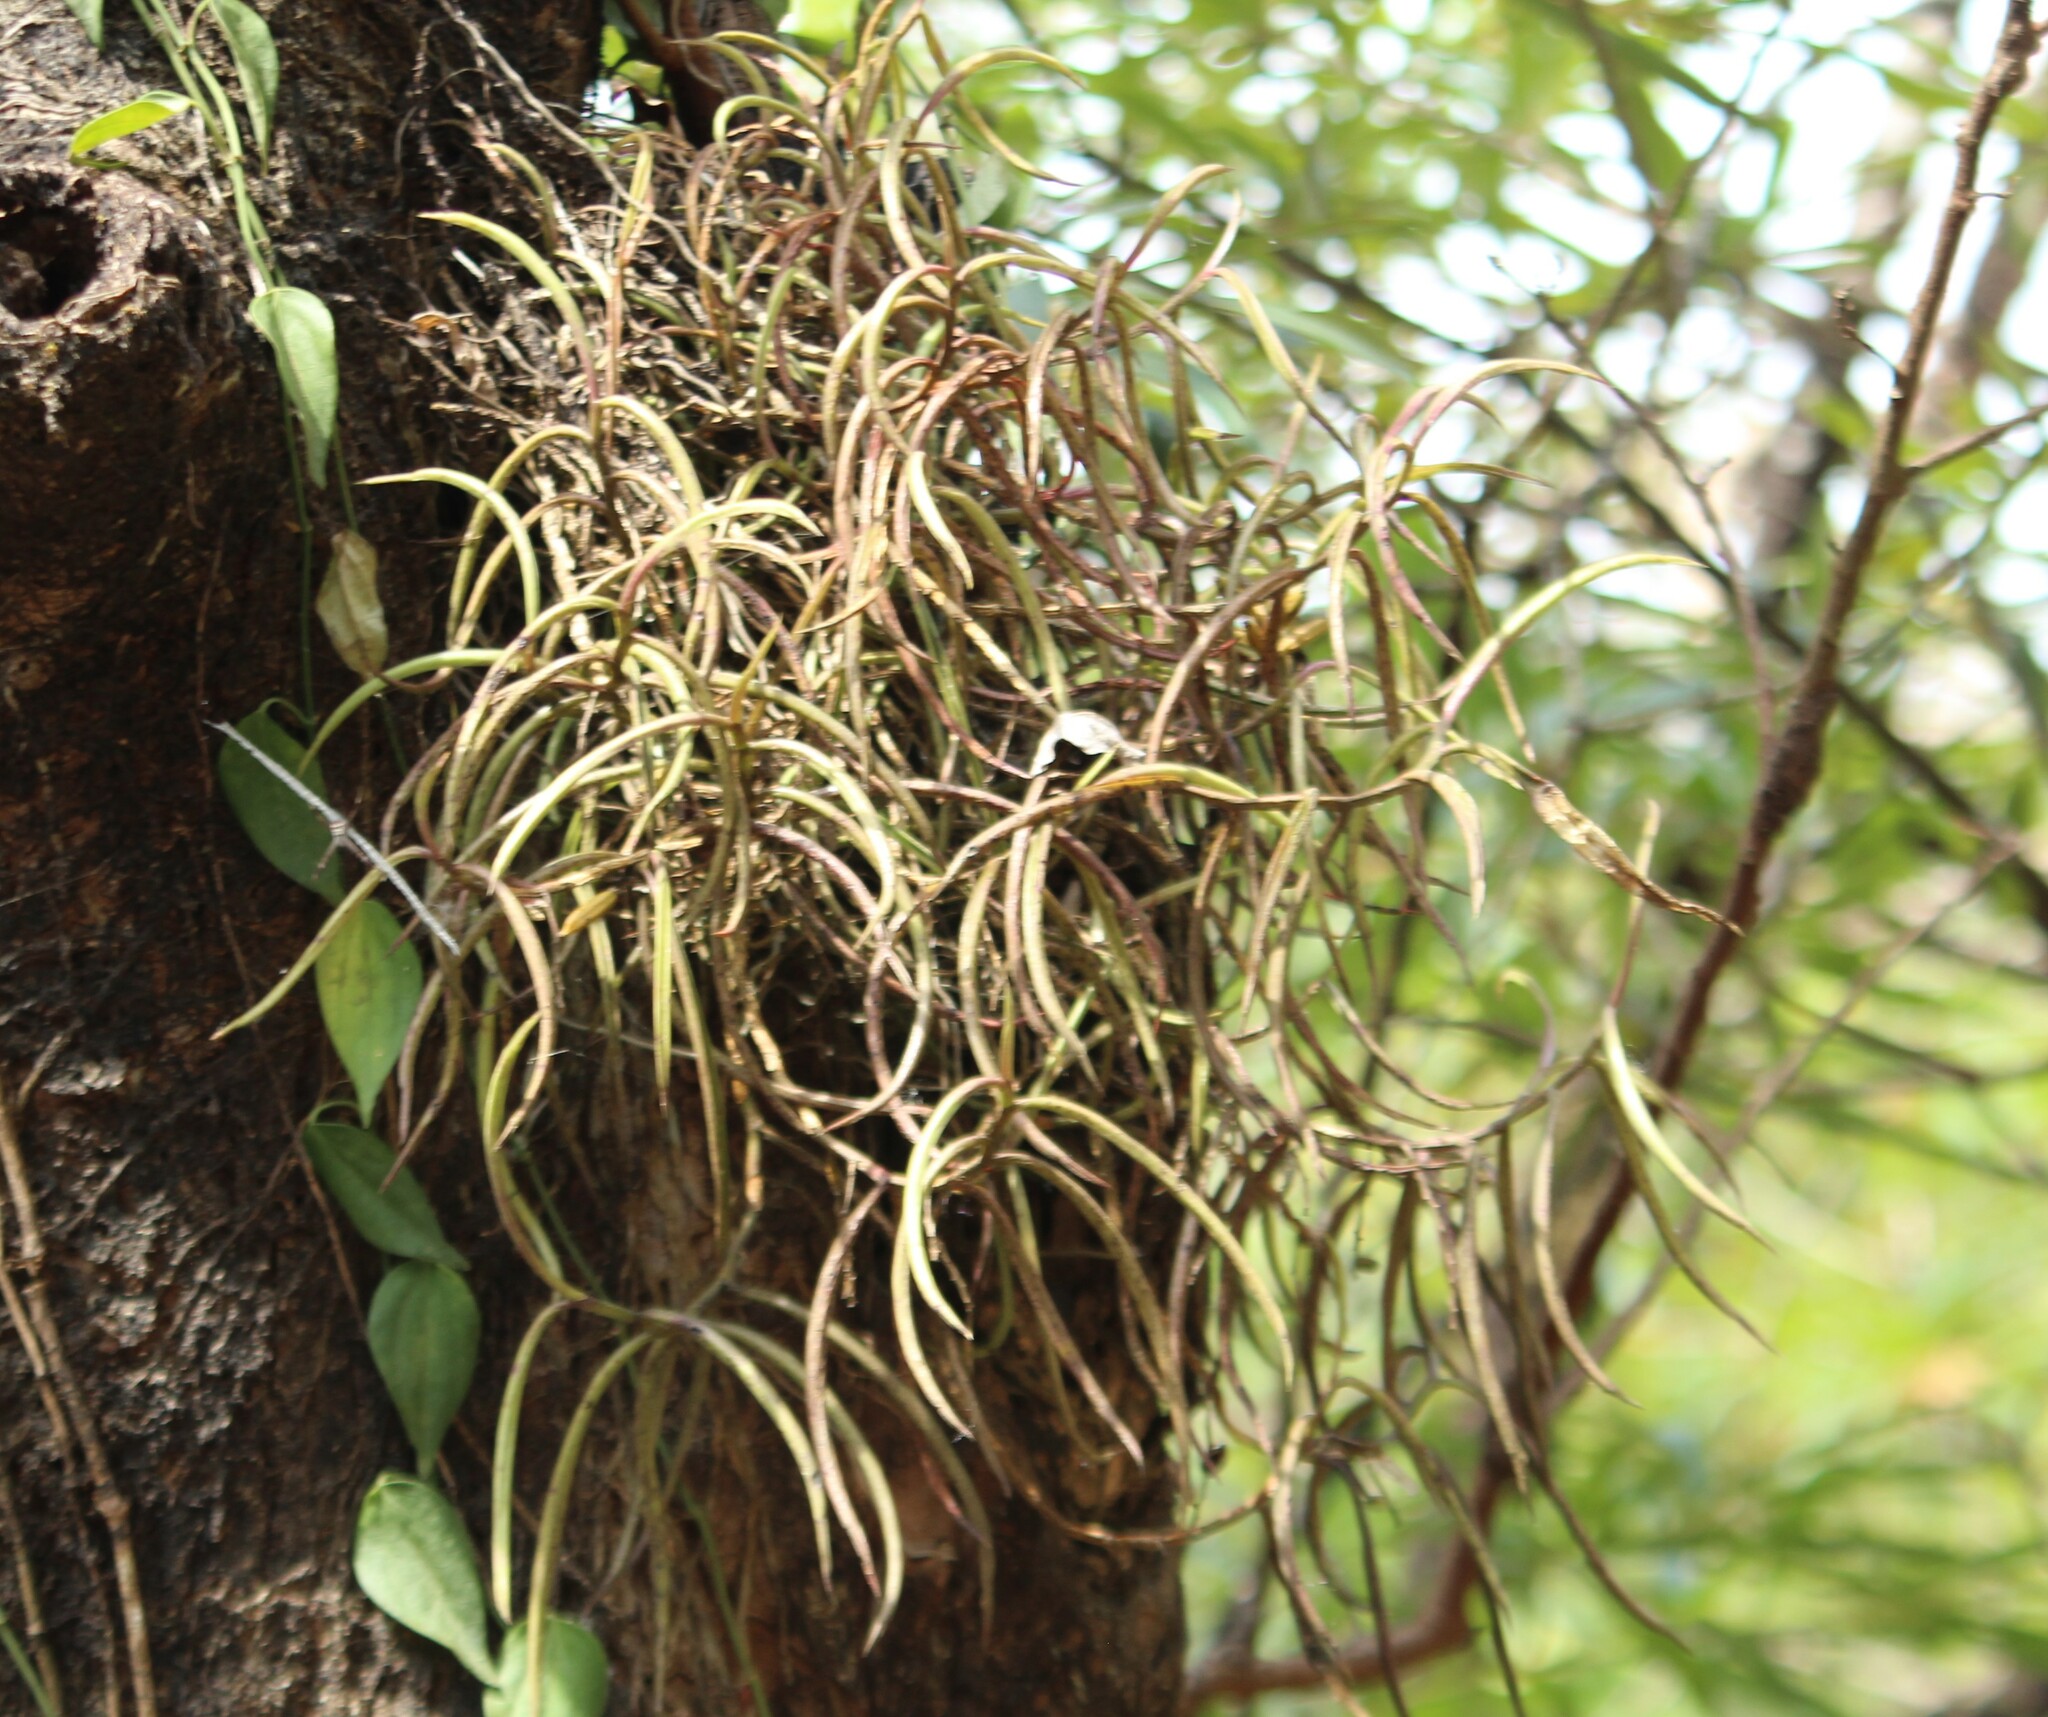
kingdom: Plantae
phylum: Tracheophyta
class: Liliopsida
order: Asparagales
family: Orchidaceae
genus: Cleisostoma
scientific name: Cleisostoma tenuifolium
